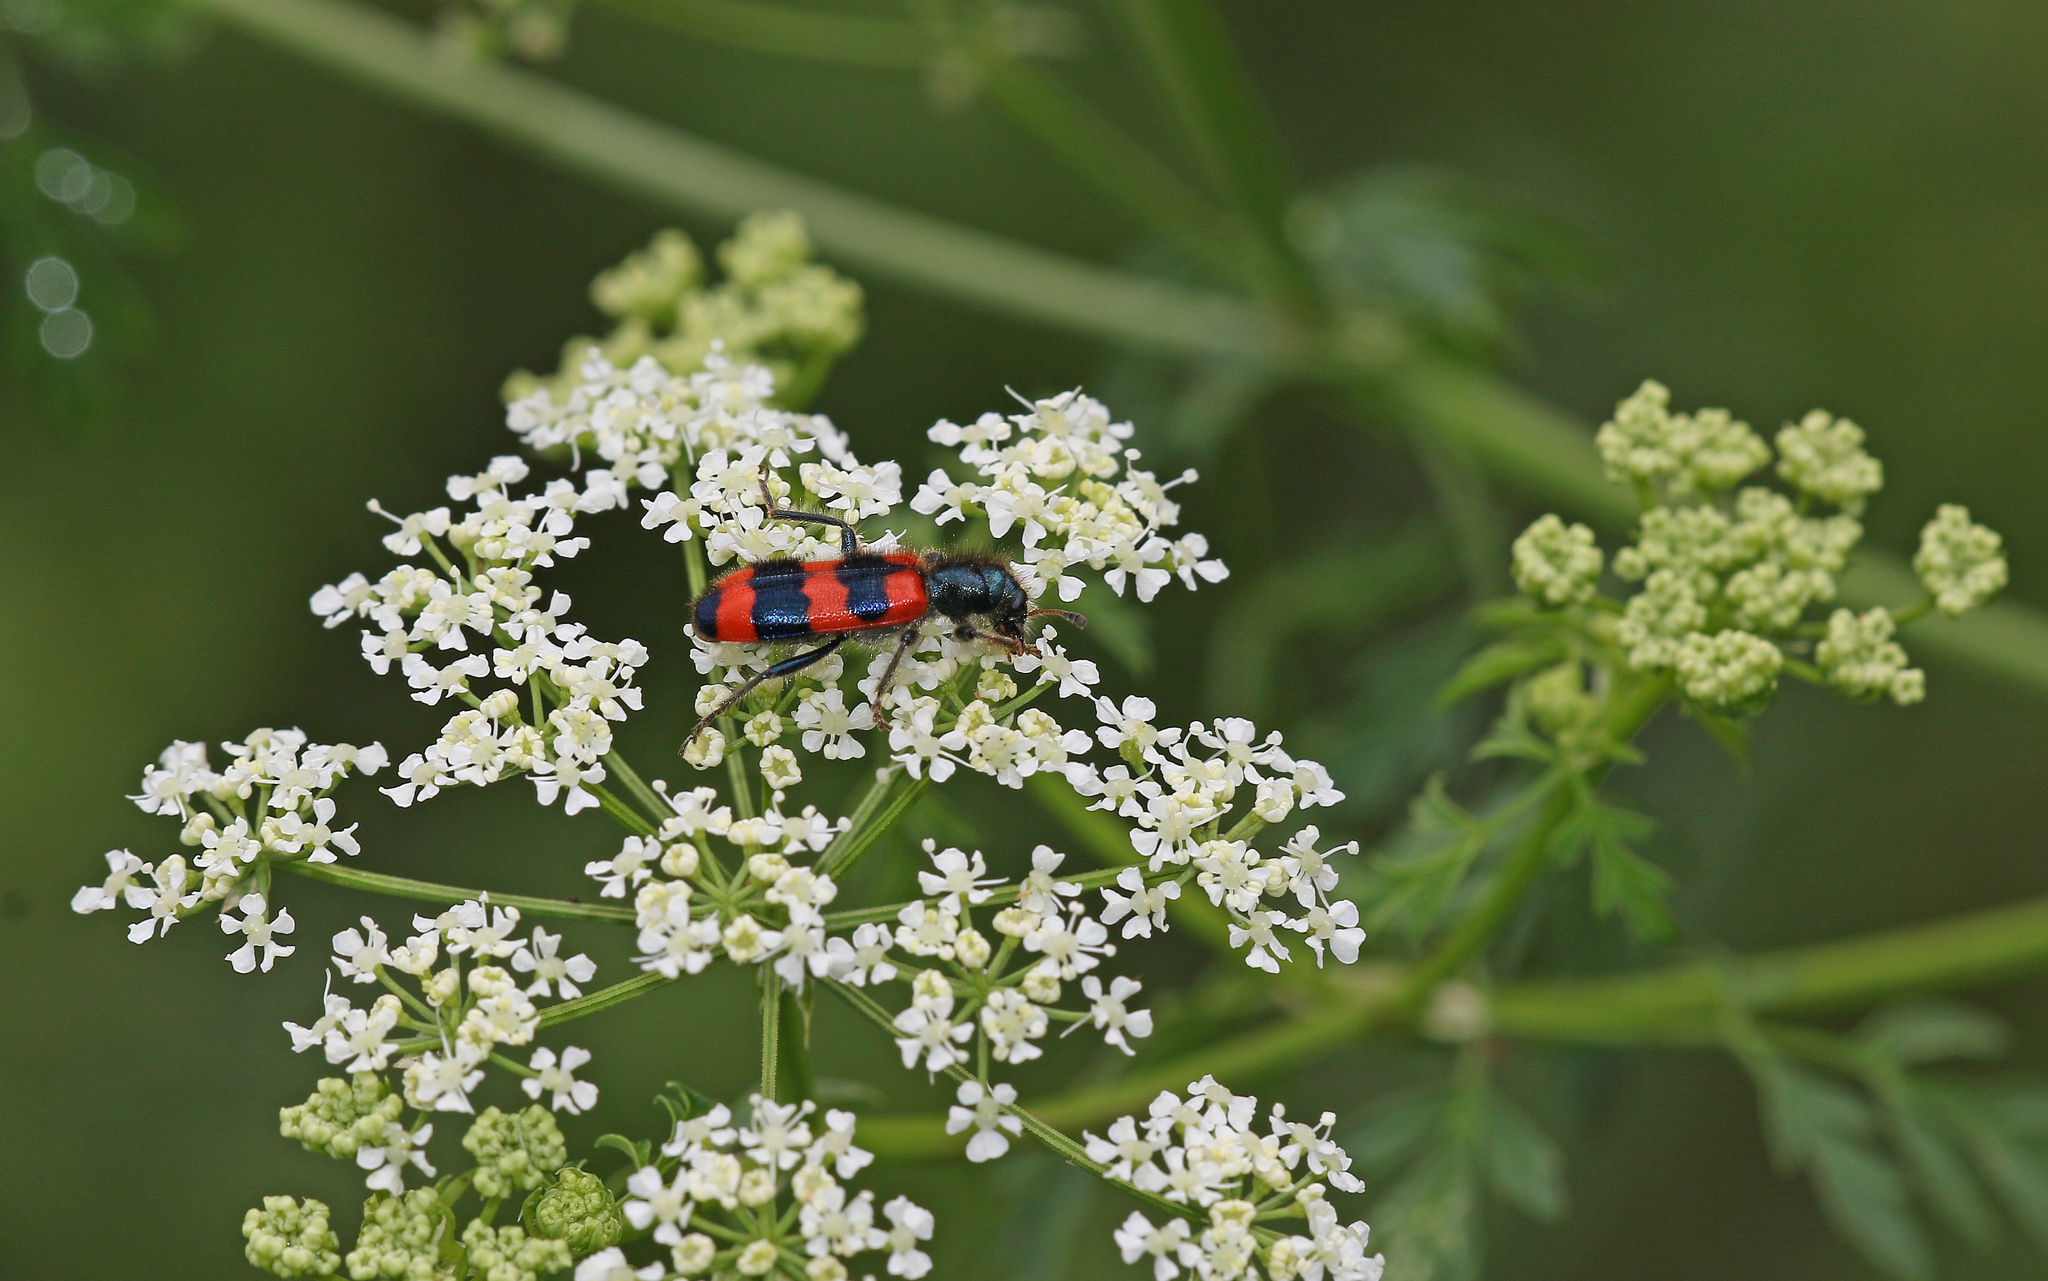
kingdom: Animalia
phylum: Arthropoda
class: Insecta
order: Coleoptera
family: Cleridae
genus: Trichodes
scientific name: Trichodes apiarius
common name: Bee-eating beetle
